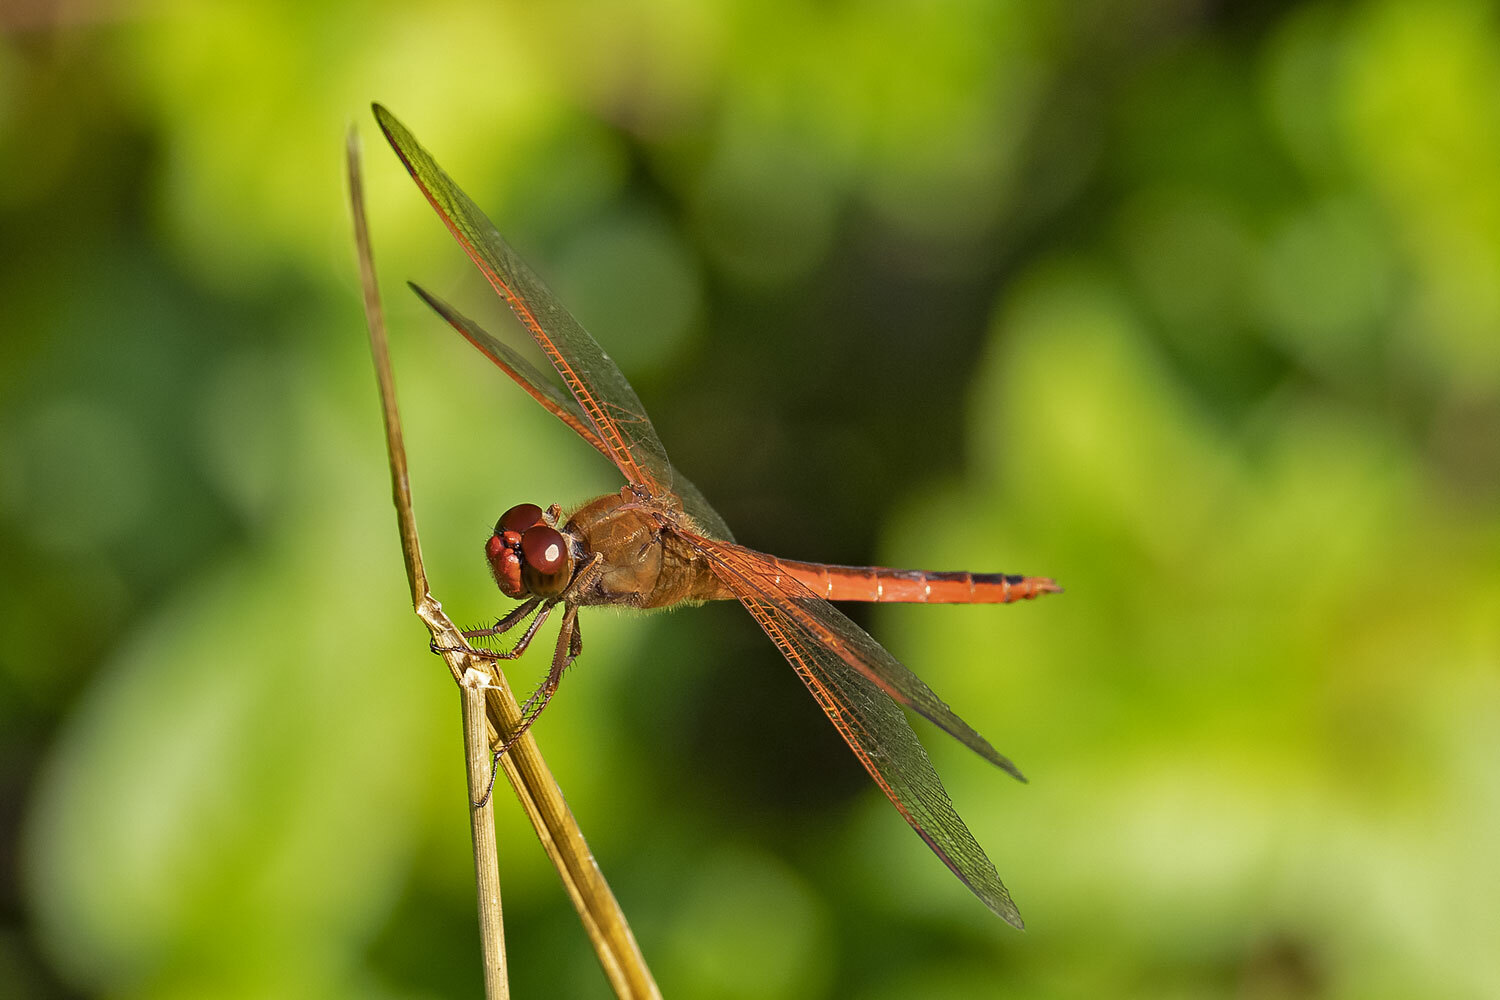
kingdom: Animalia
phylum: Arthropoda
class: Insecta
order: Odonata
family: Libellulidae
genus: Libellula
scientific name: Libellula needhami
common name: Needham's skimmer
